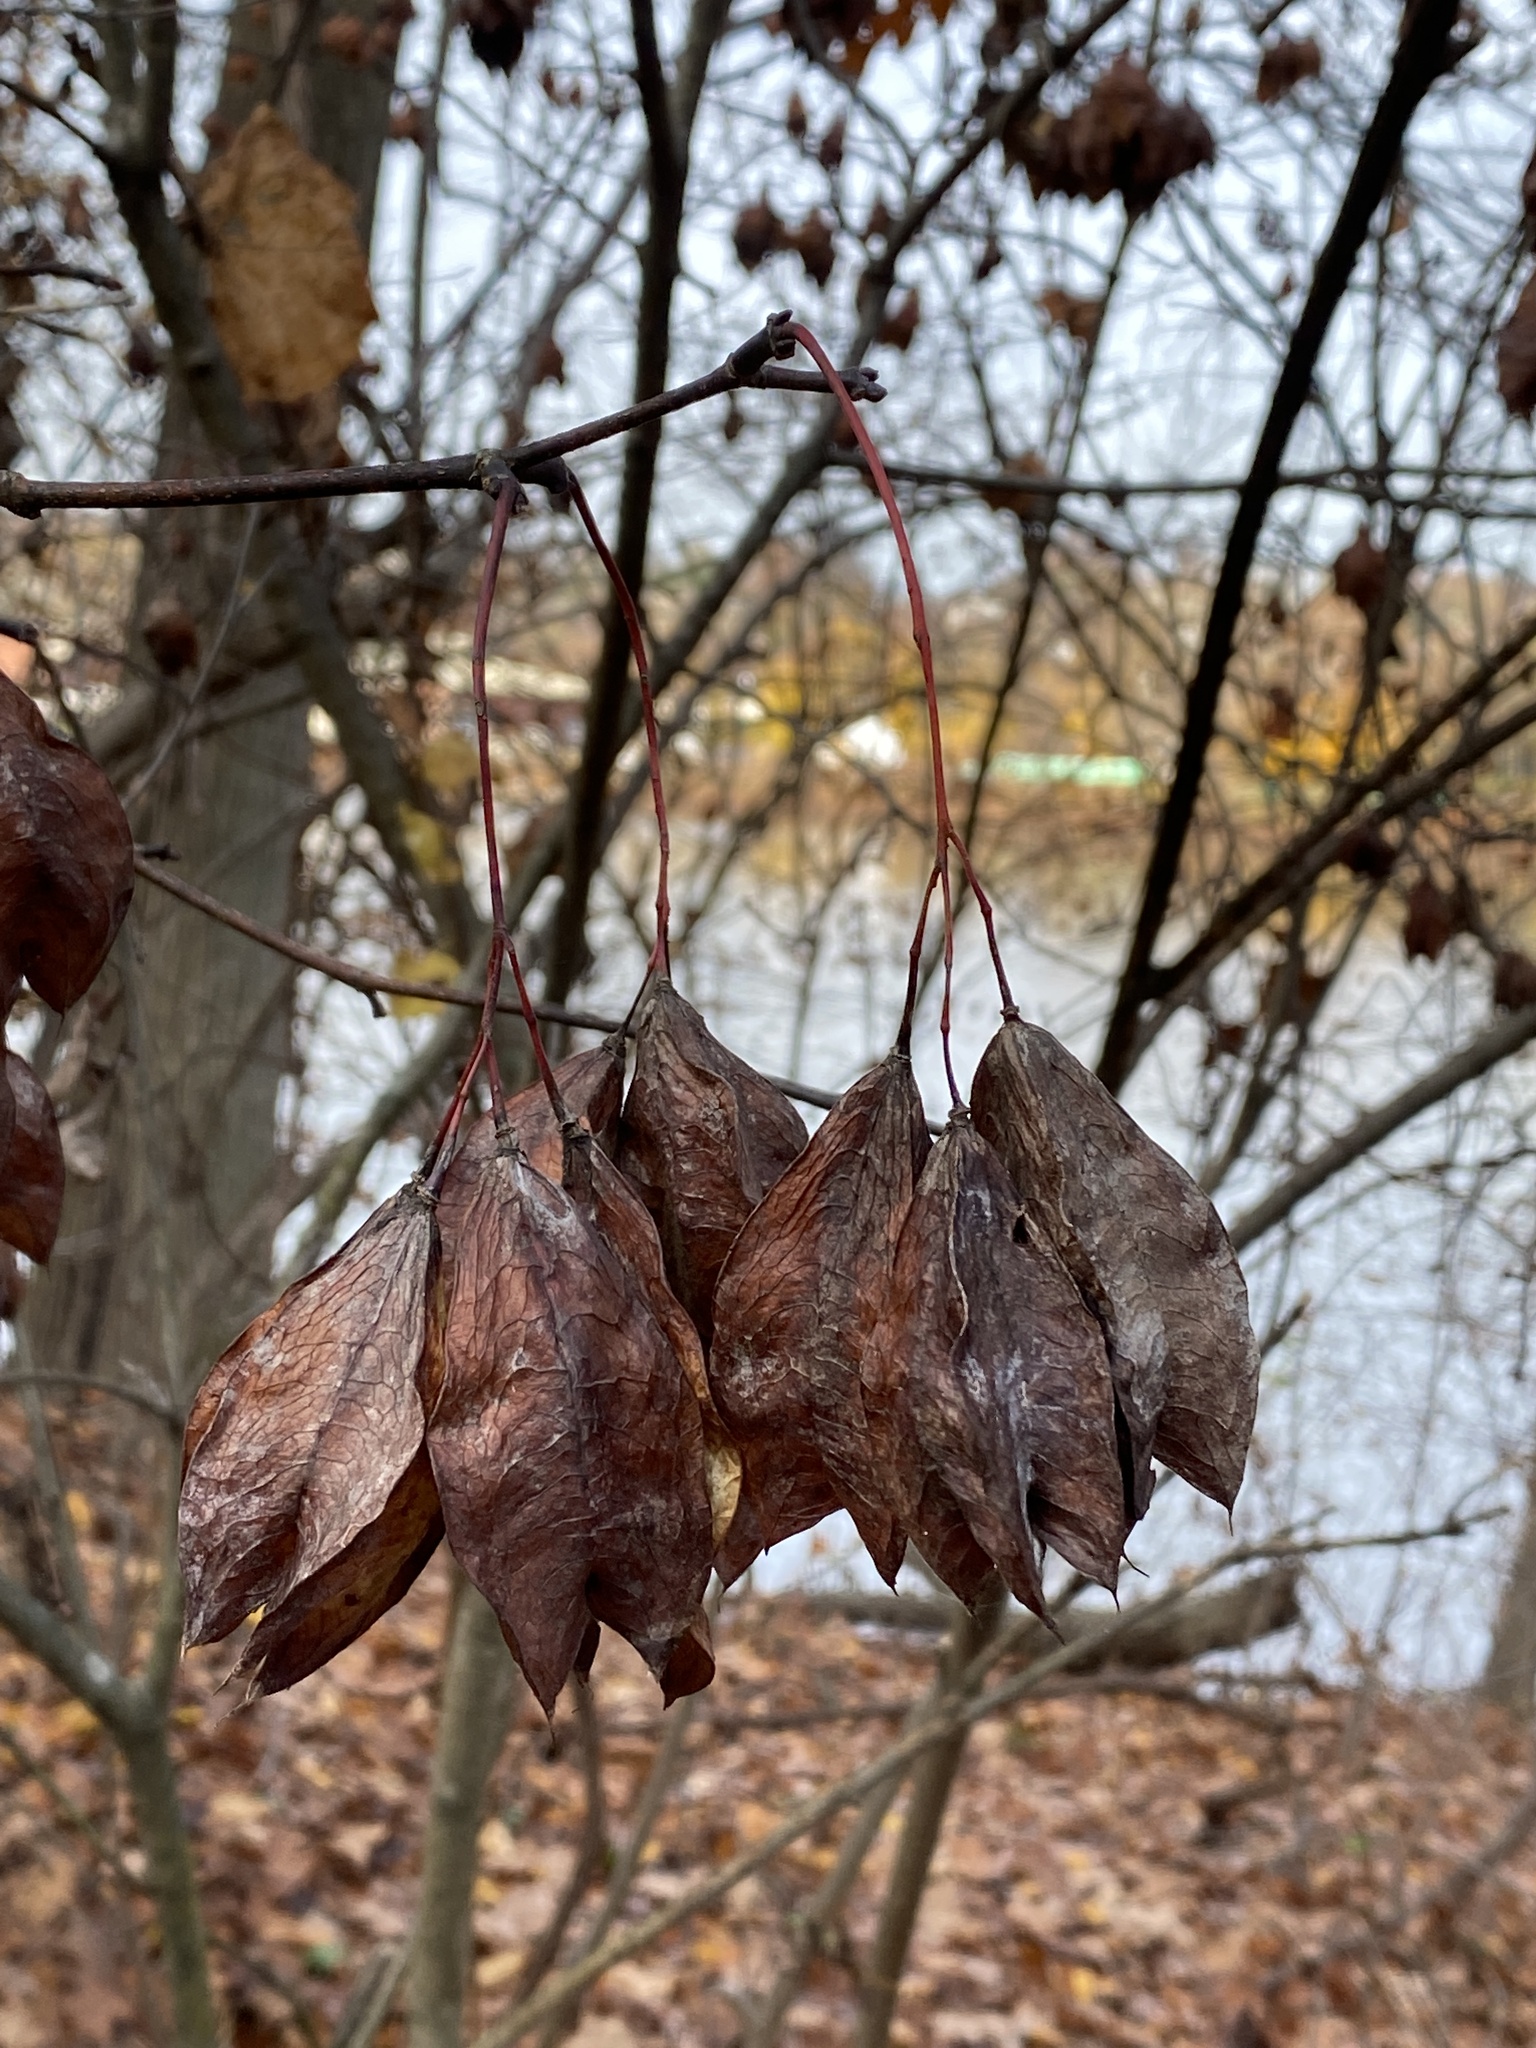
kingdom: Plantae
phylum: Tracheophyta
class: Magnoliopsida
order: Crossosomatales
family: Staphyleaceae
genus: Staphylea
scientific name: Staphylea trifolia
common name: American bladdernut
